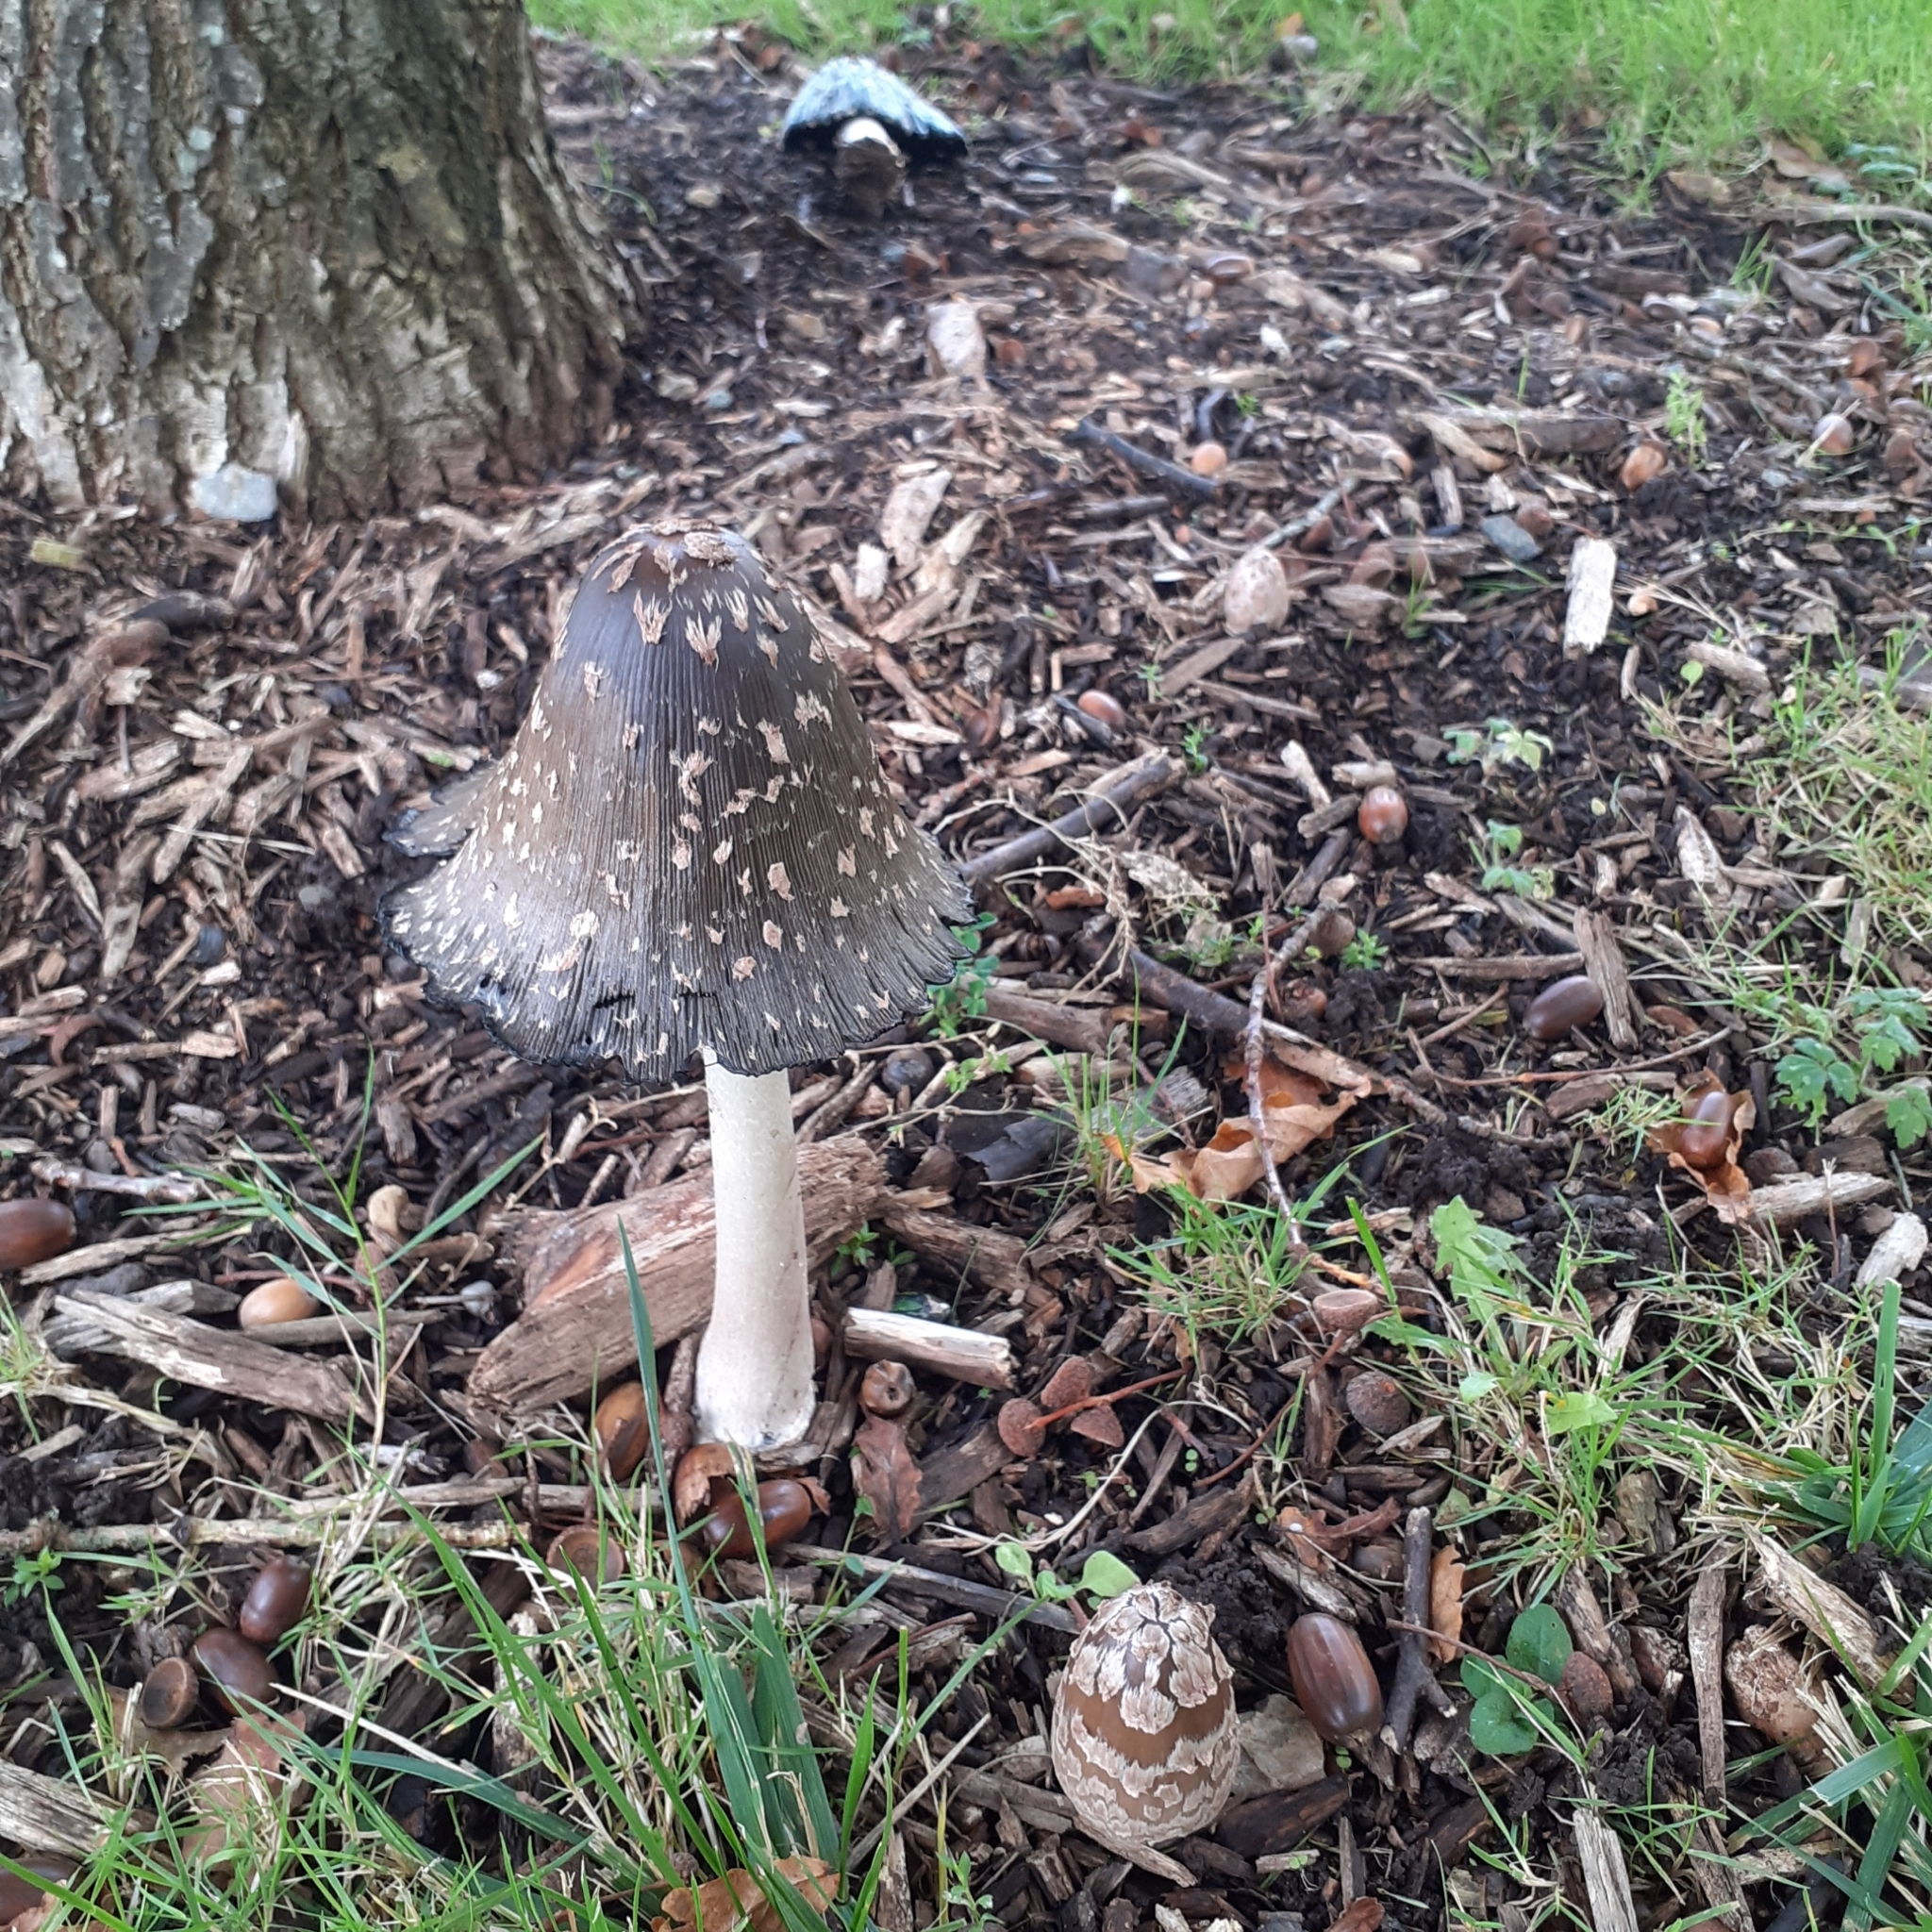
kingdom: Fungi
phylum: Basidiomycota
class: Agaricomycetes
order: Agaricales
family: Psathyrellaceae
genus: Coprinopsis
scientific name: Coprinopsis picacea
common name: Magpie inkcap
